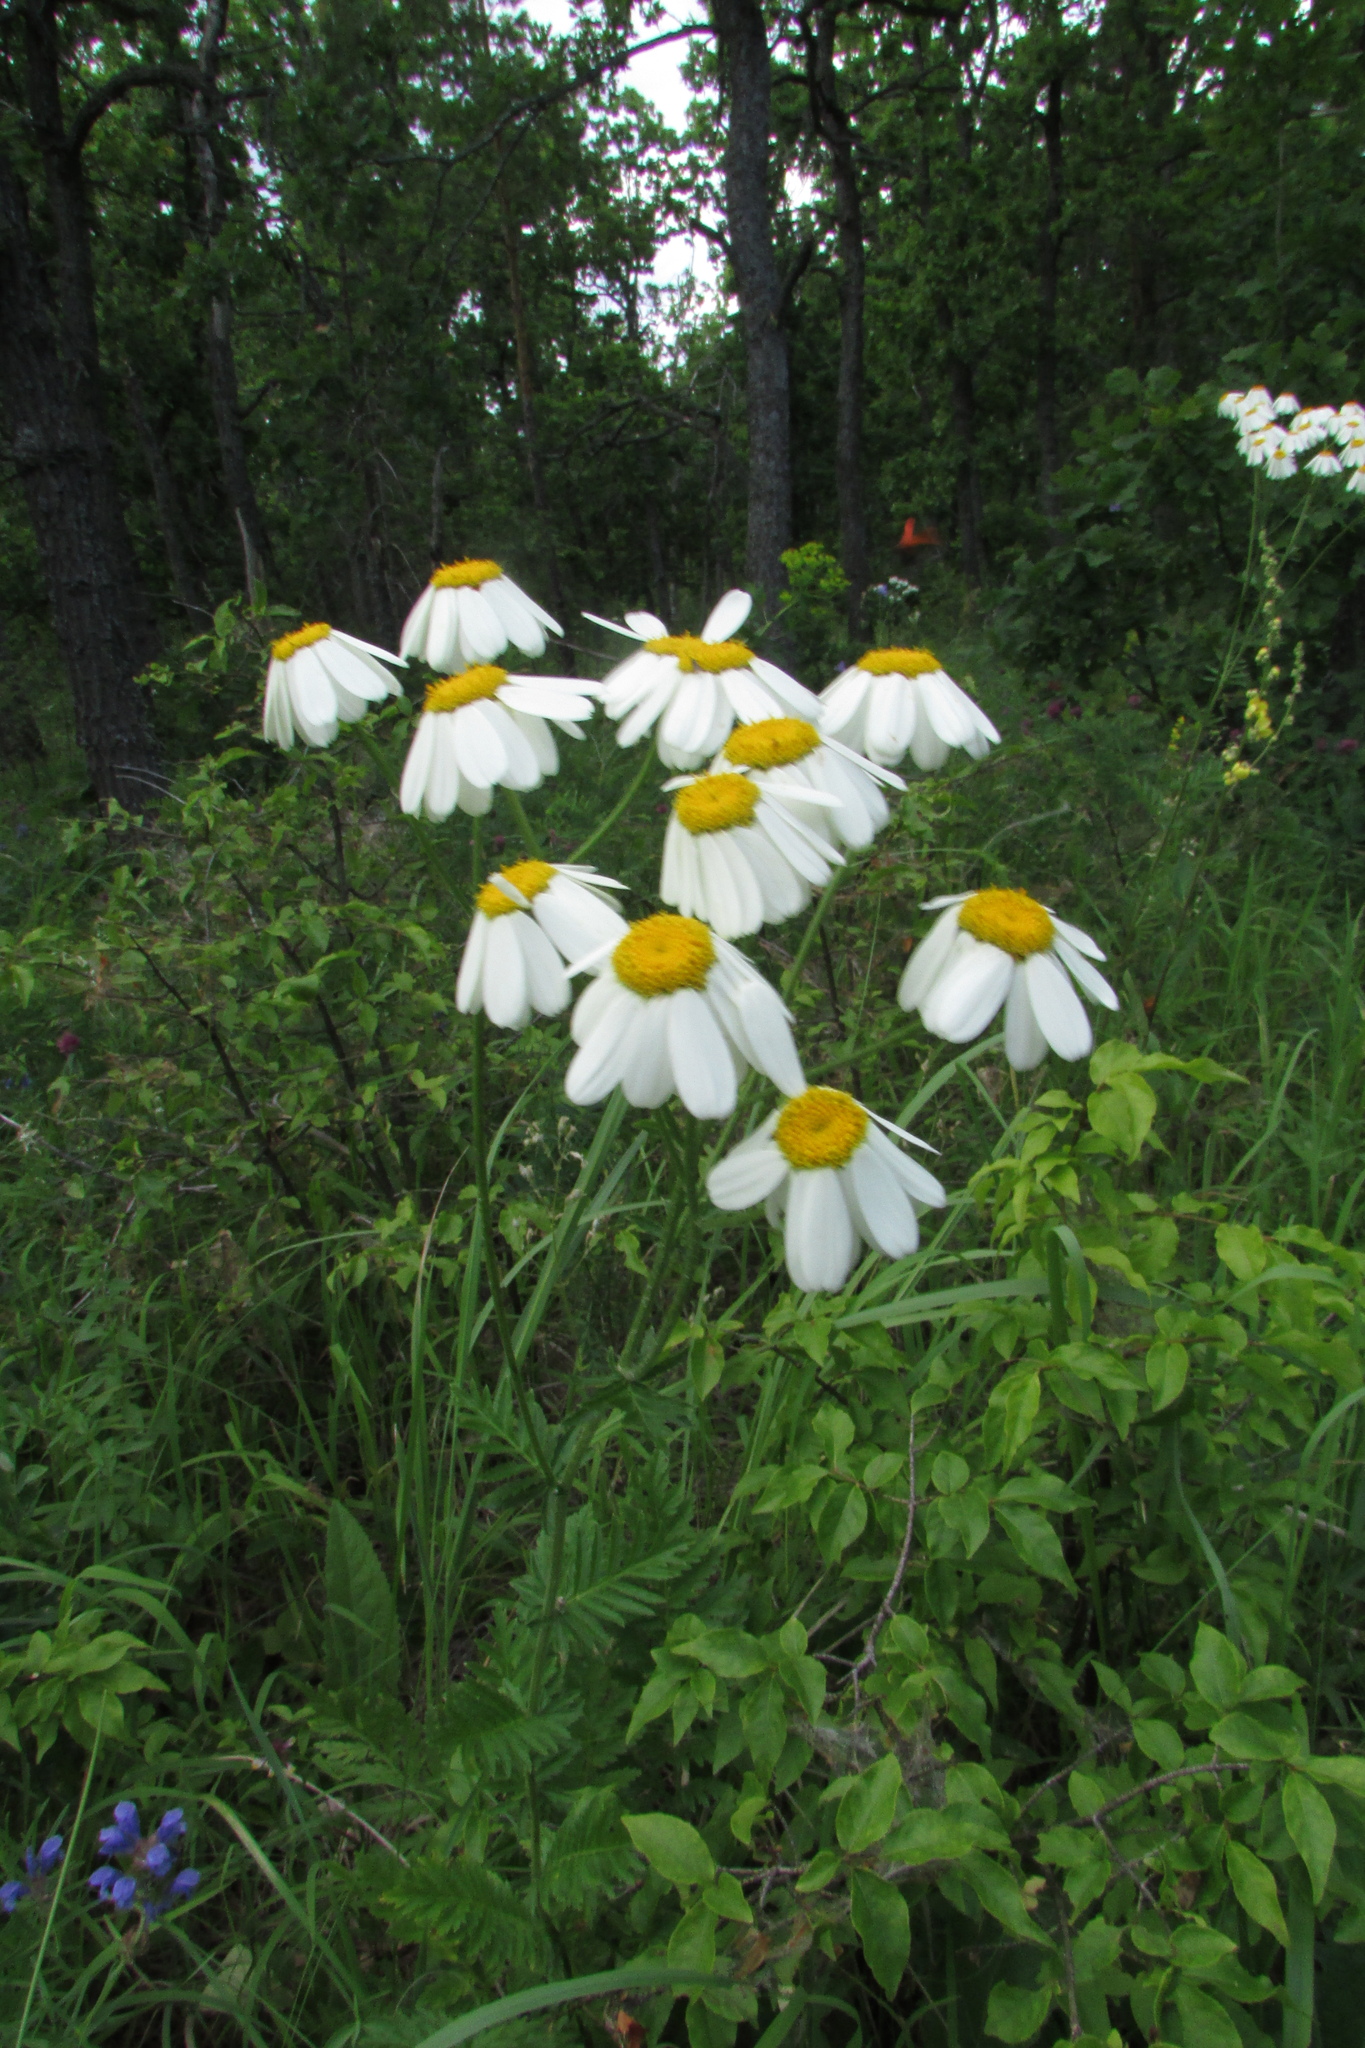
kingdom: Plantae
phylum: Tracheophyta
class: Magnoliopsida
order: Asterales
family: Asteraceae
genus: Tanacetum
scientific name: Tanacetum corymbosum
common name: Scentless feverfew
